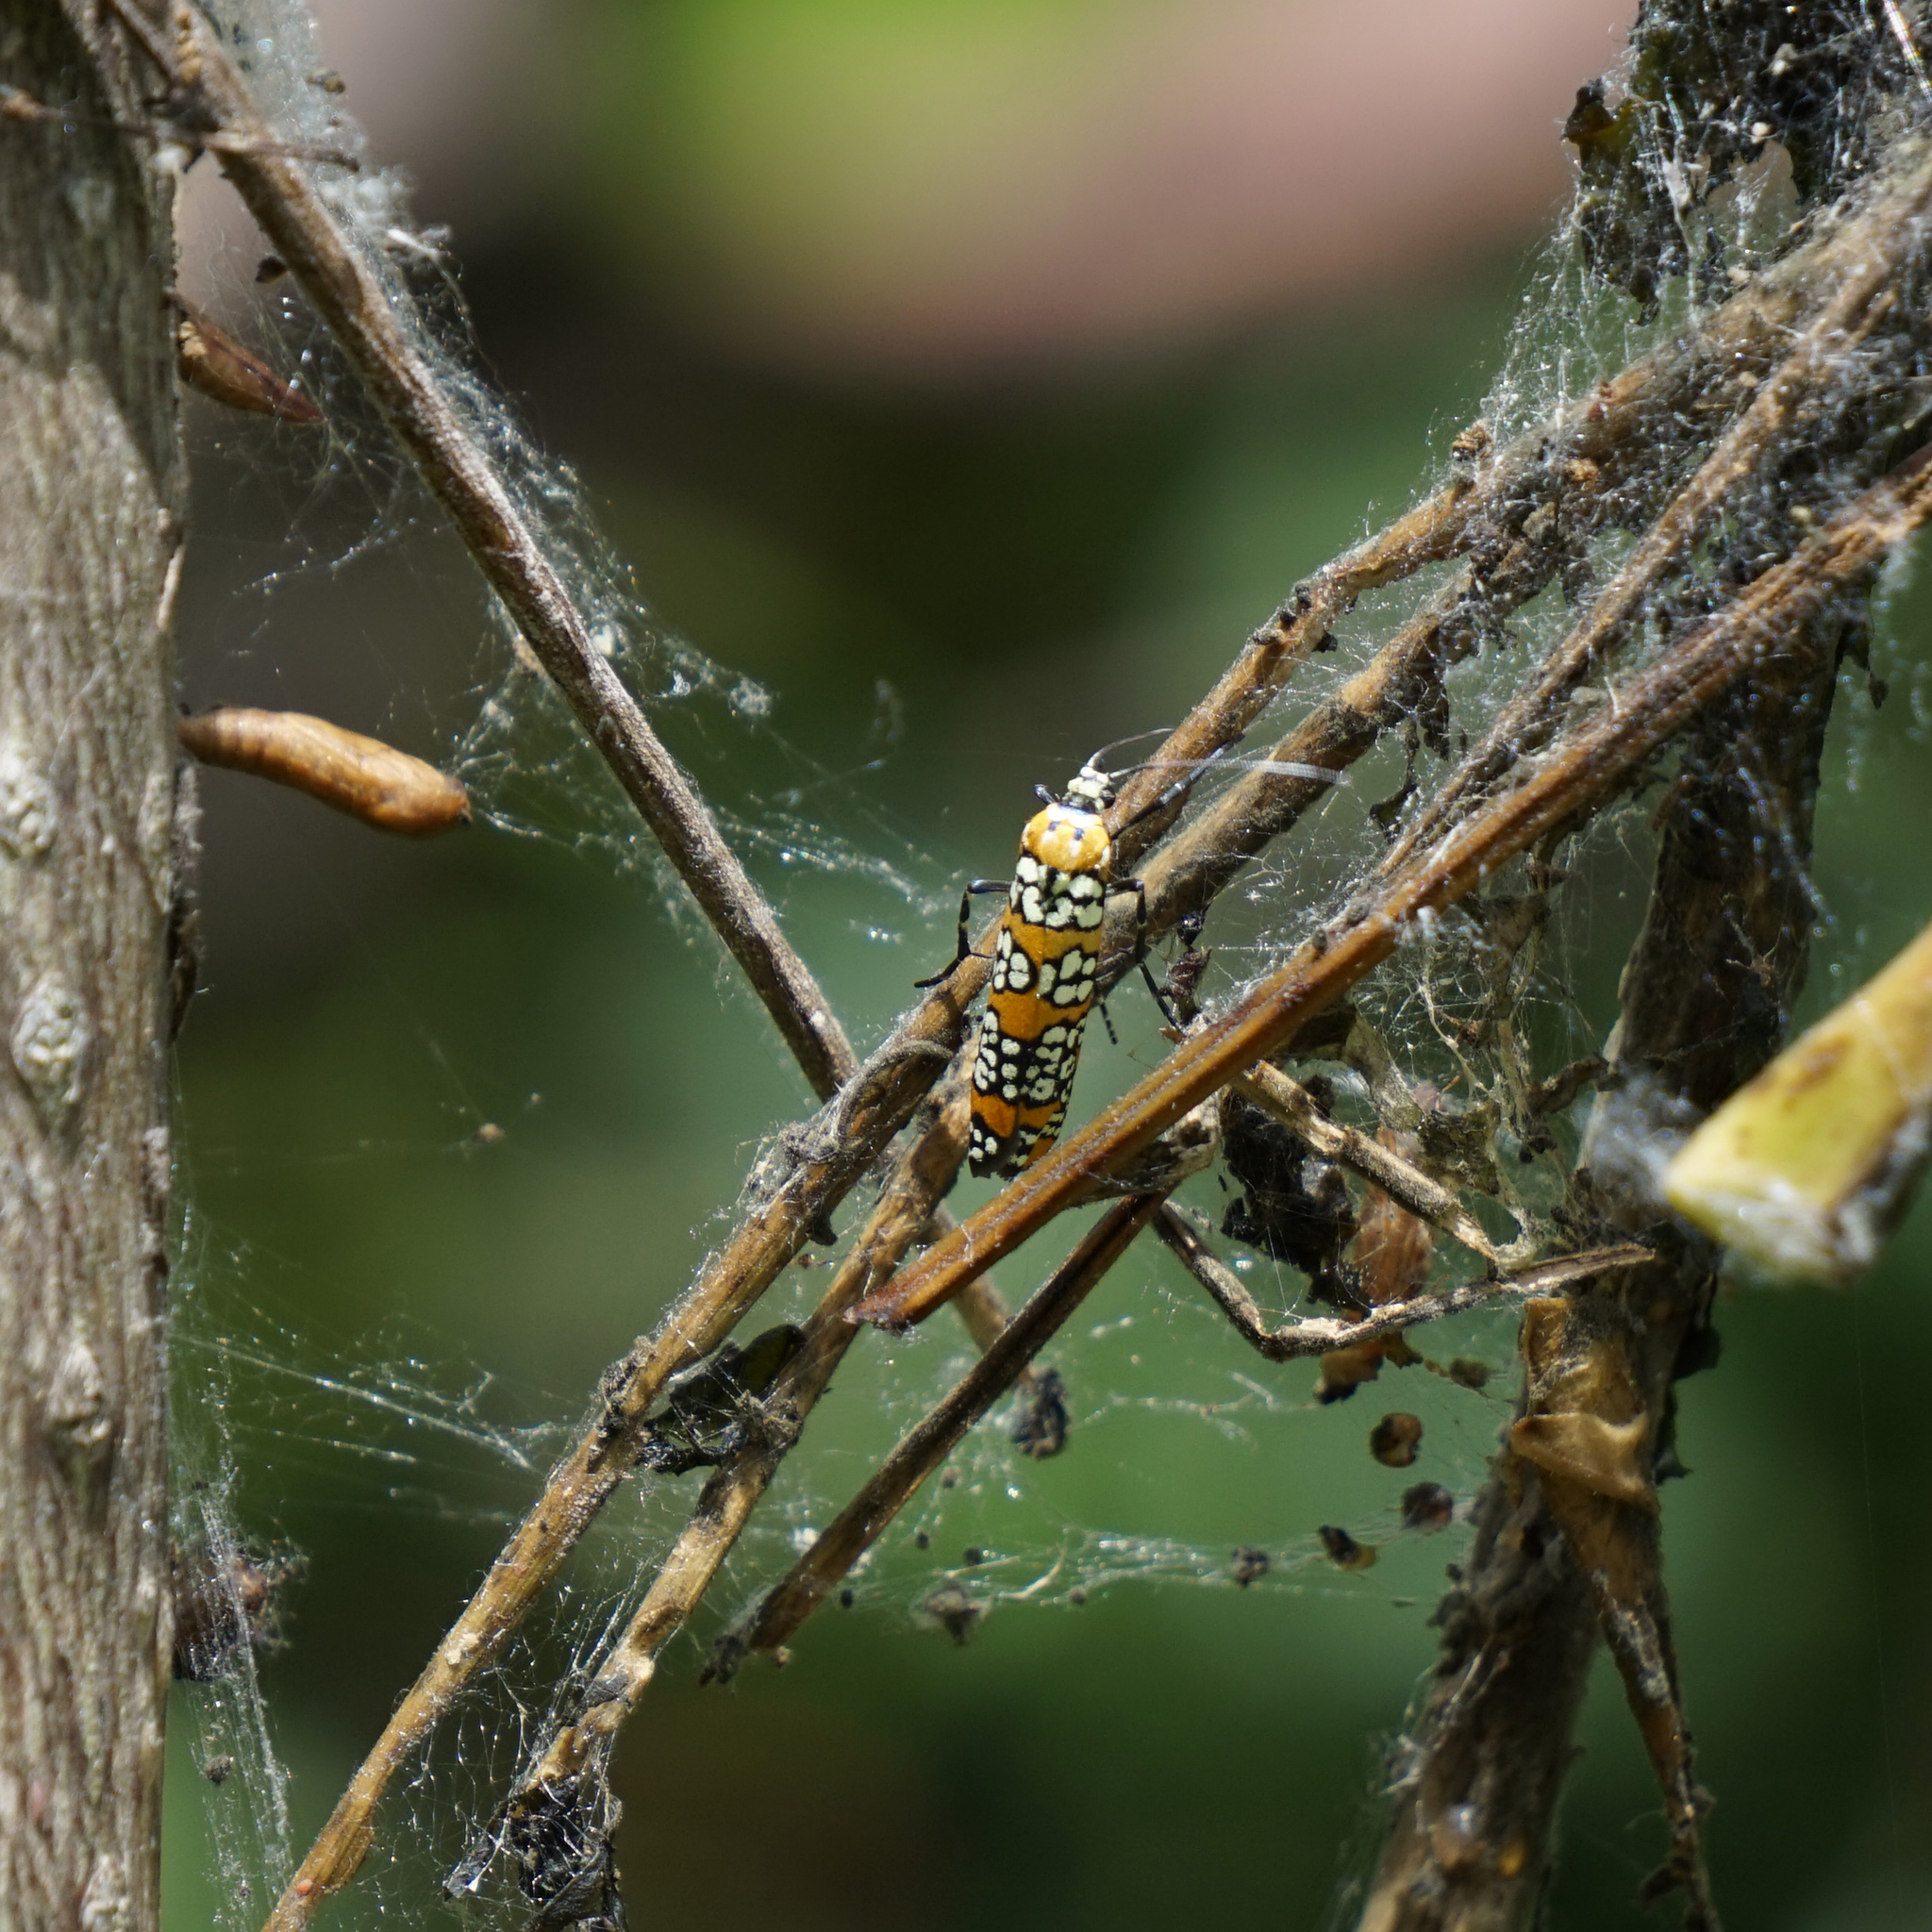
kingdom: Animalia
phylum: Arthropoda
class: Insecta
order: Lepidoptera
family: Attevidae
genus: Atteva
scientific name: Atteva punctella
